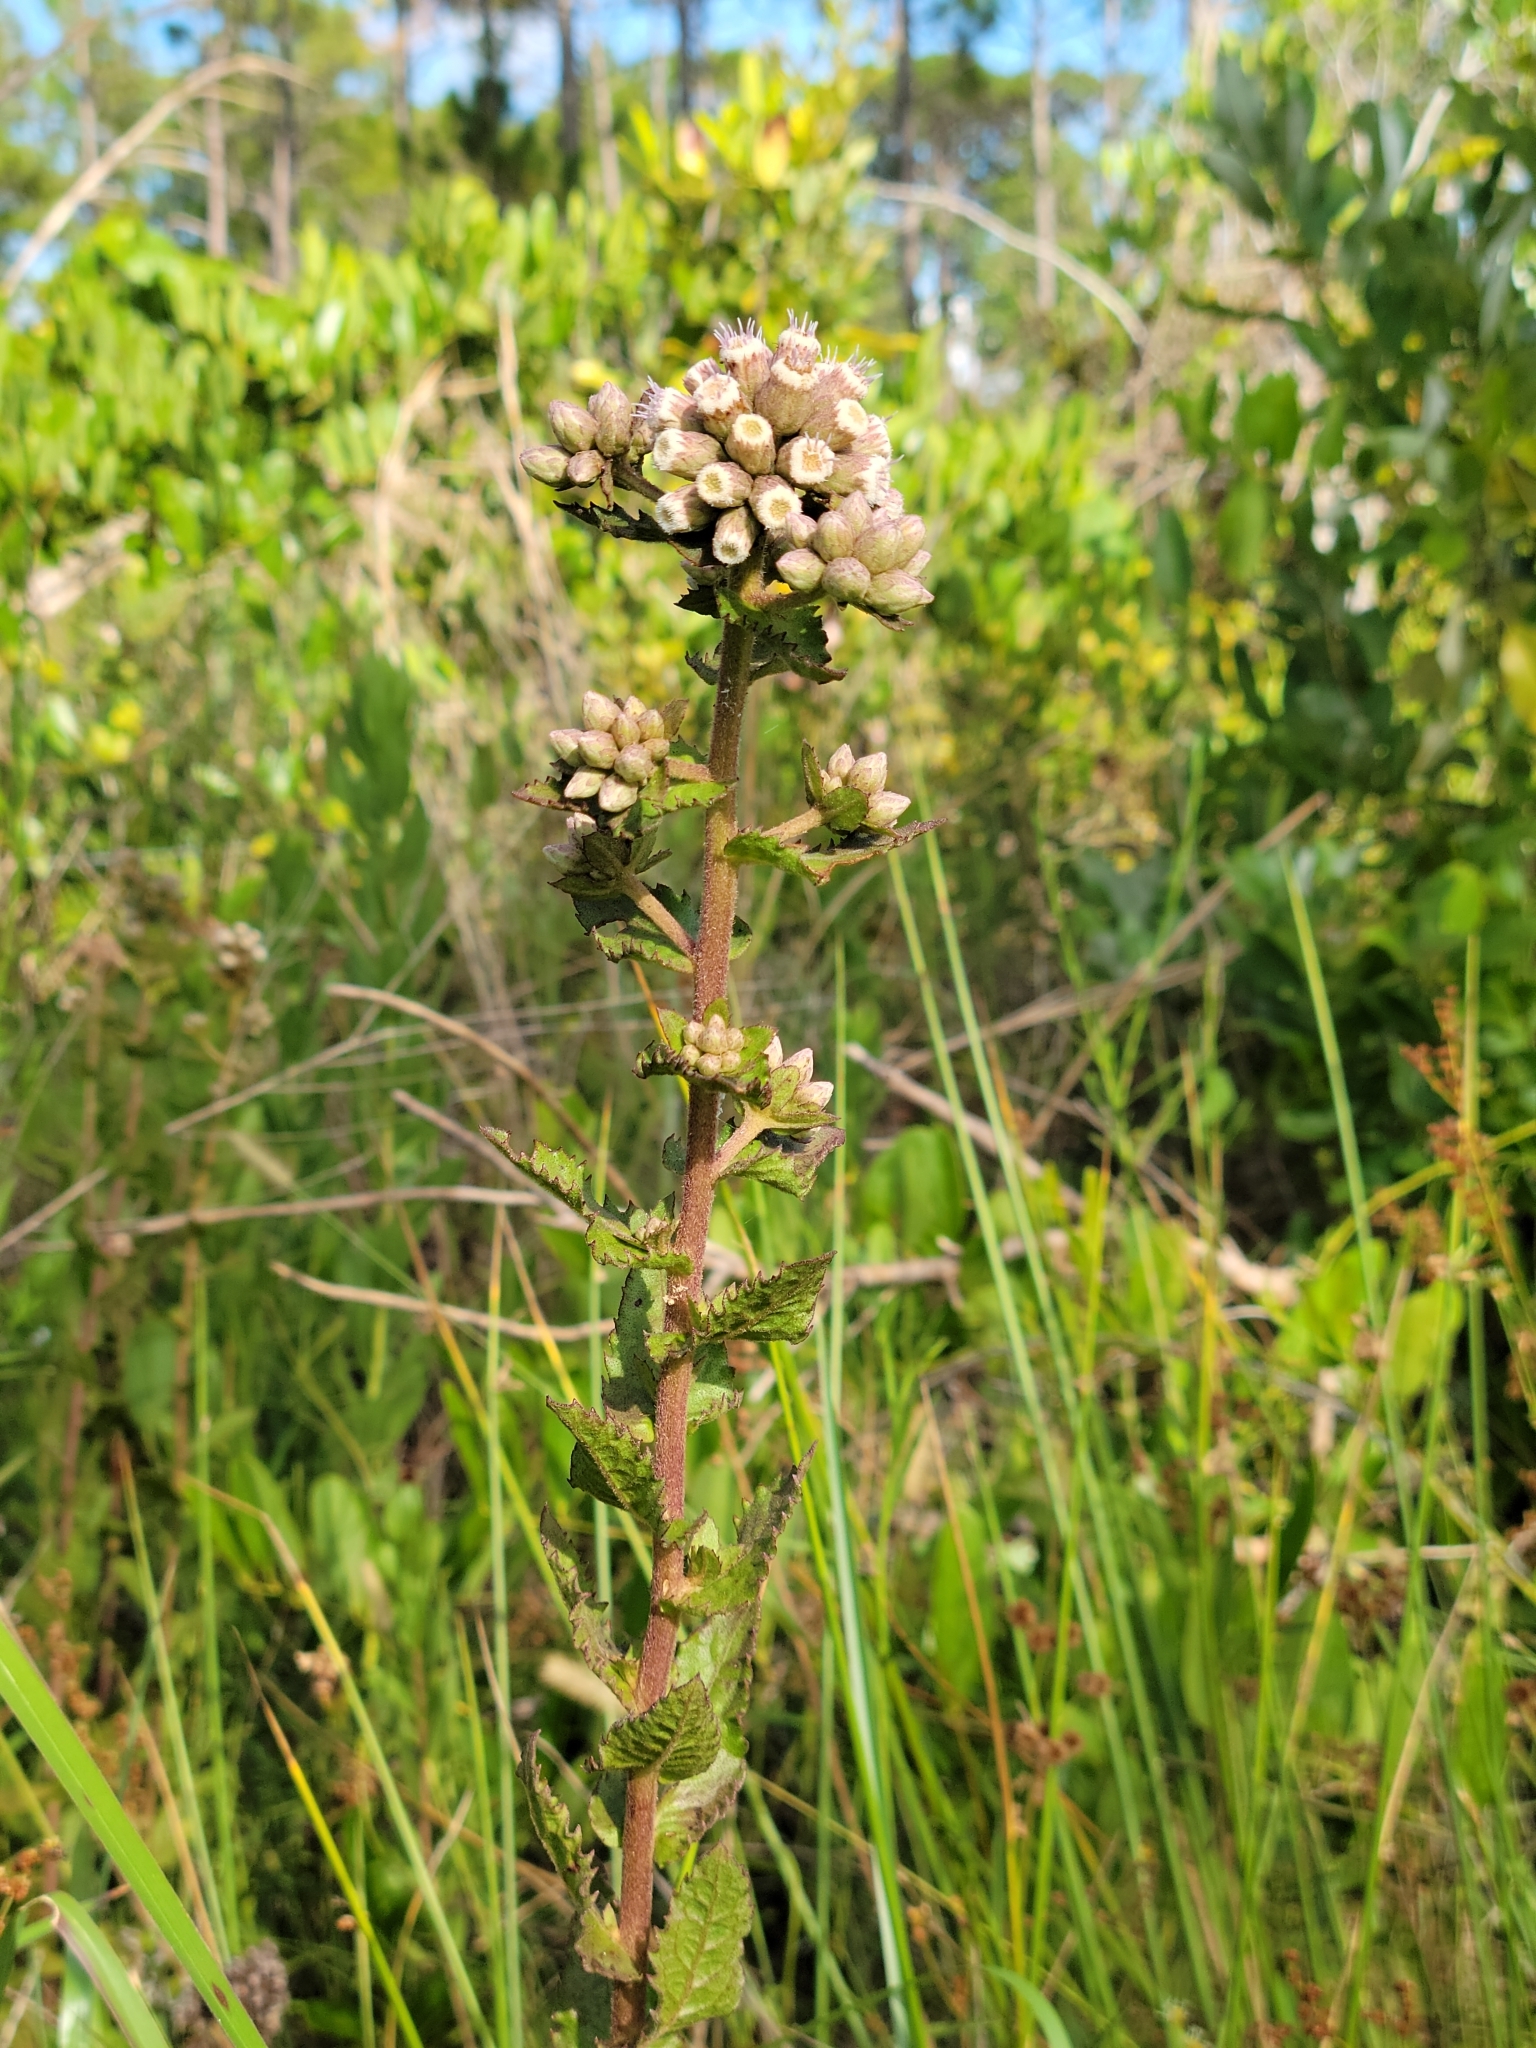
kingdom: Plantae
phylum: Tracheophyta
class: Magnoliopsida
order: Asterales
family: Asteraceae
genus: Pluchea
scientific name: Pluchea foetida
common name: Stinking camphorweed
